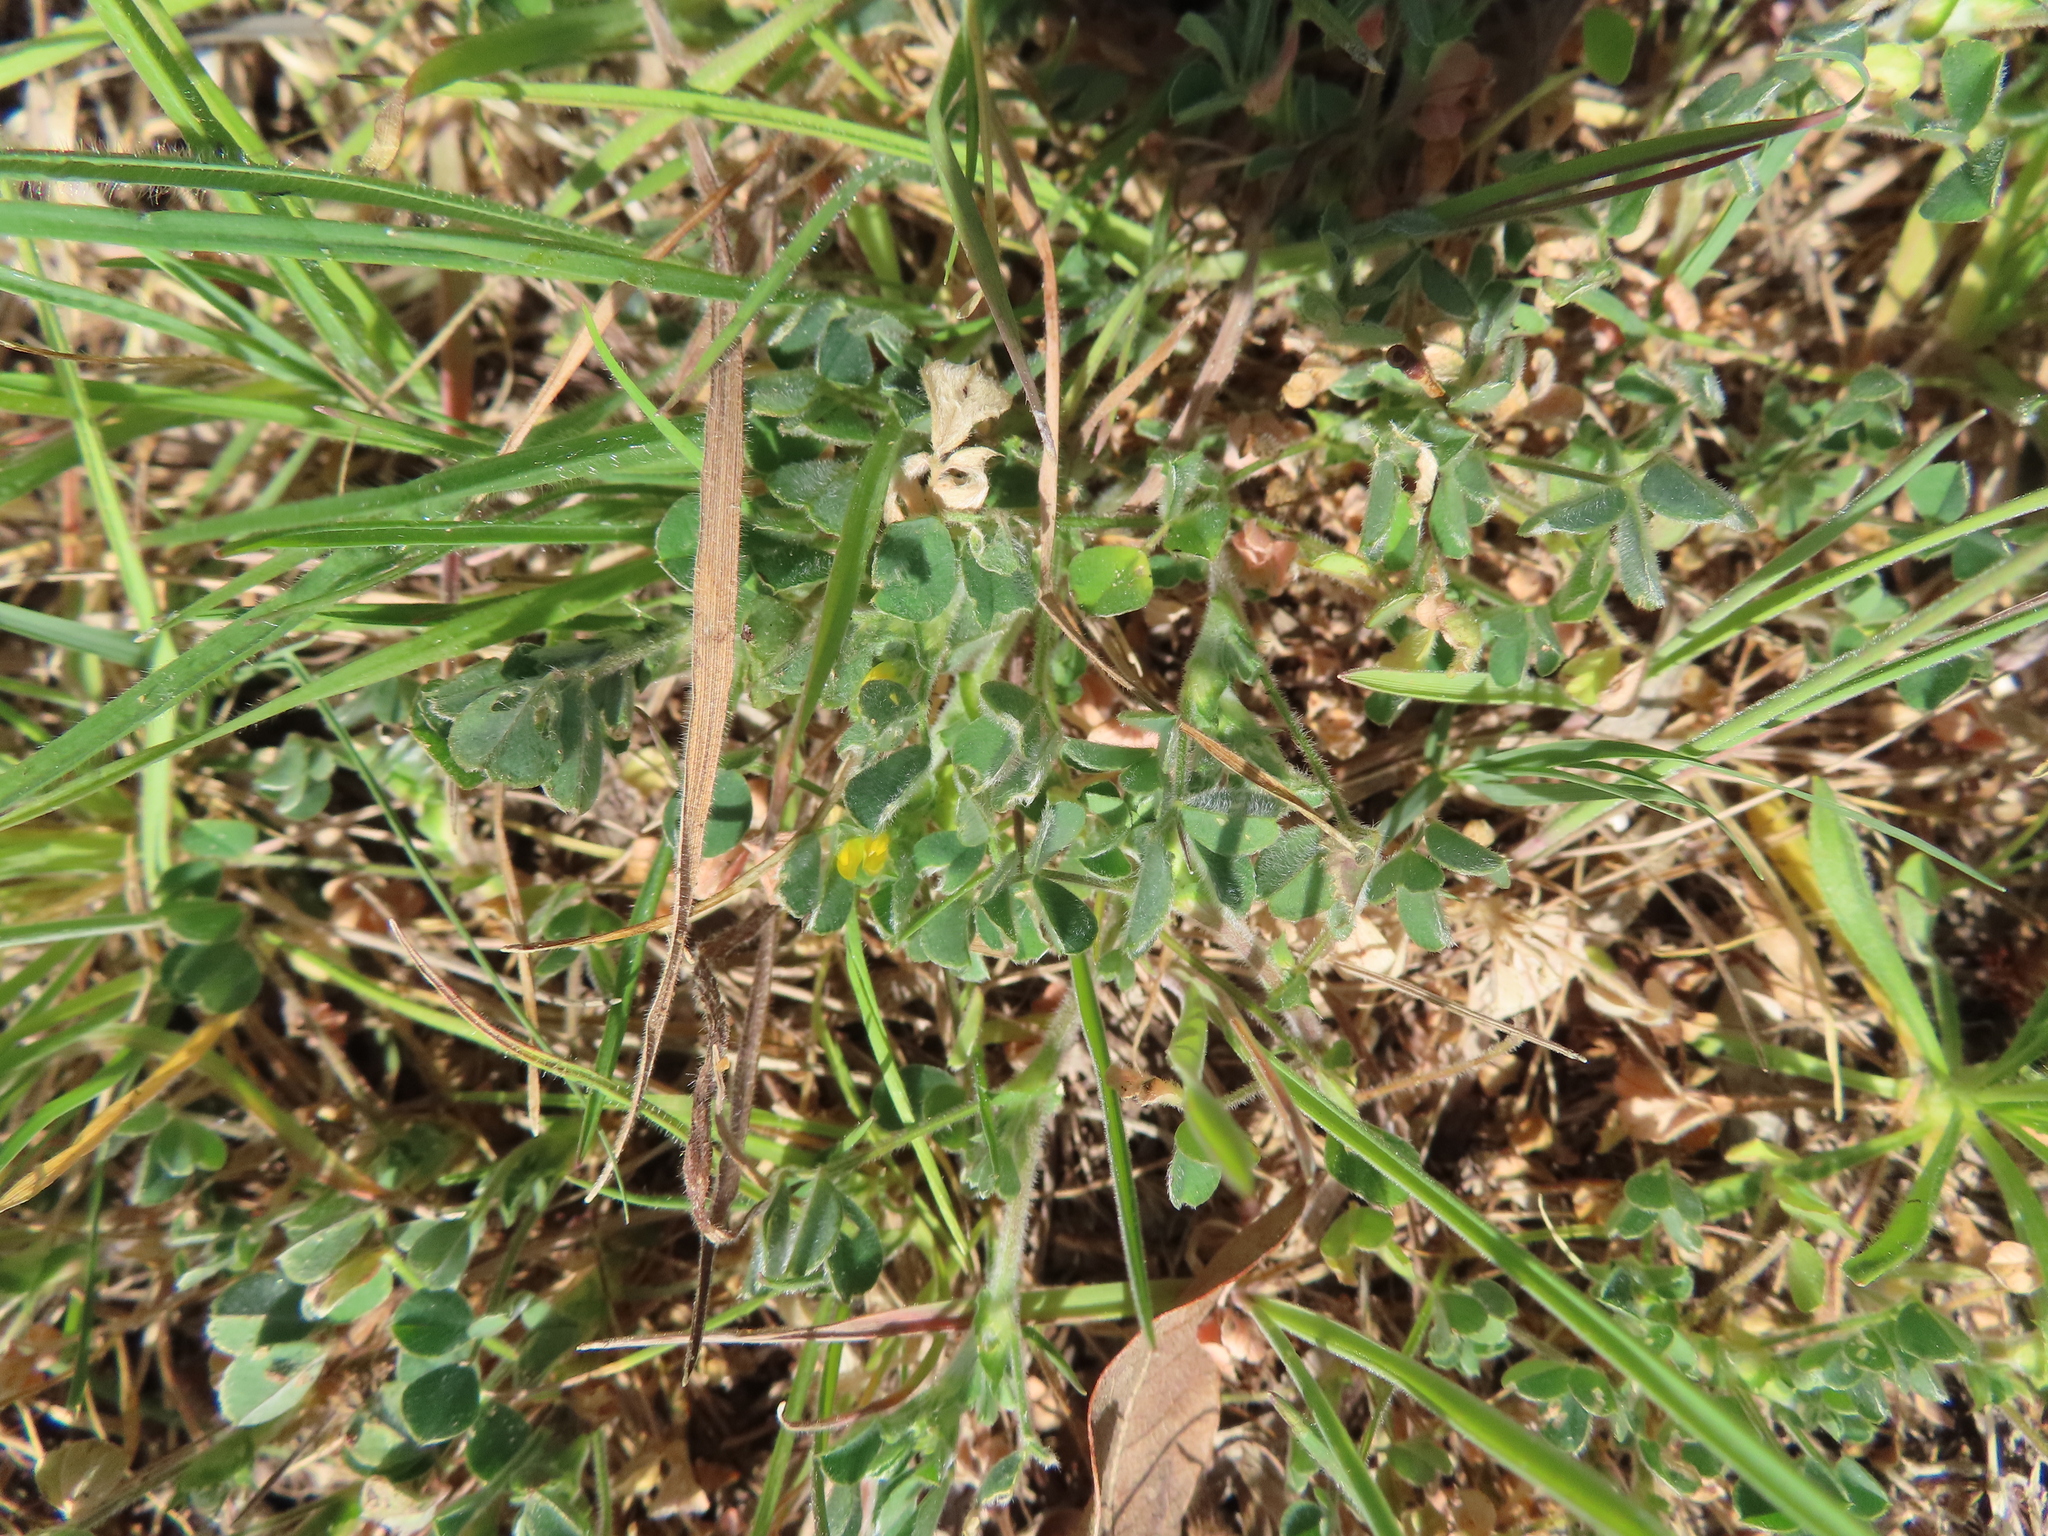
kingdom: Plantae
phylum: Tracheophyta
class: Magnoliopsida
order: Fabales
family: Fabaceae
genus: Medicago
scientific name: Medicago minima
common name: Little bur-clover
